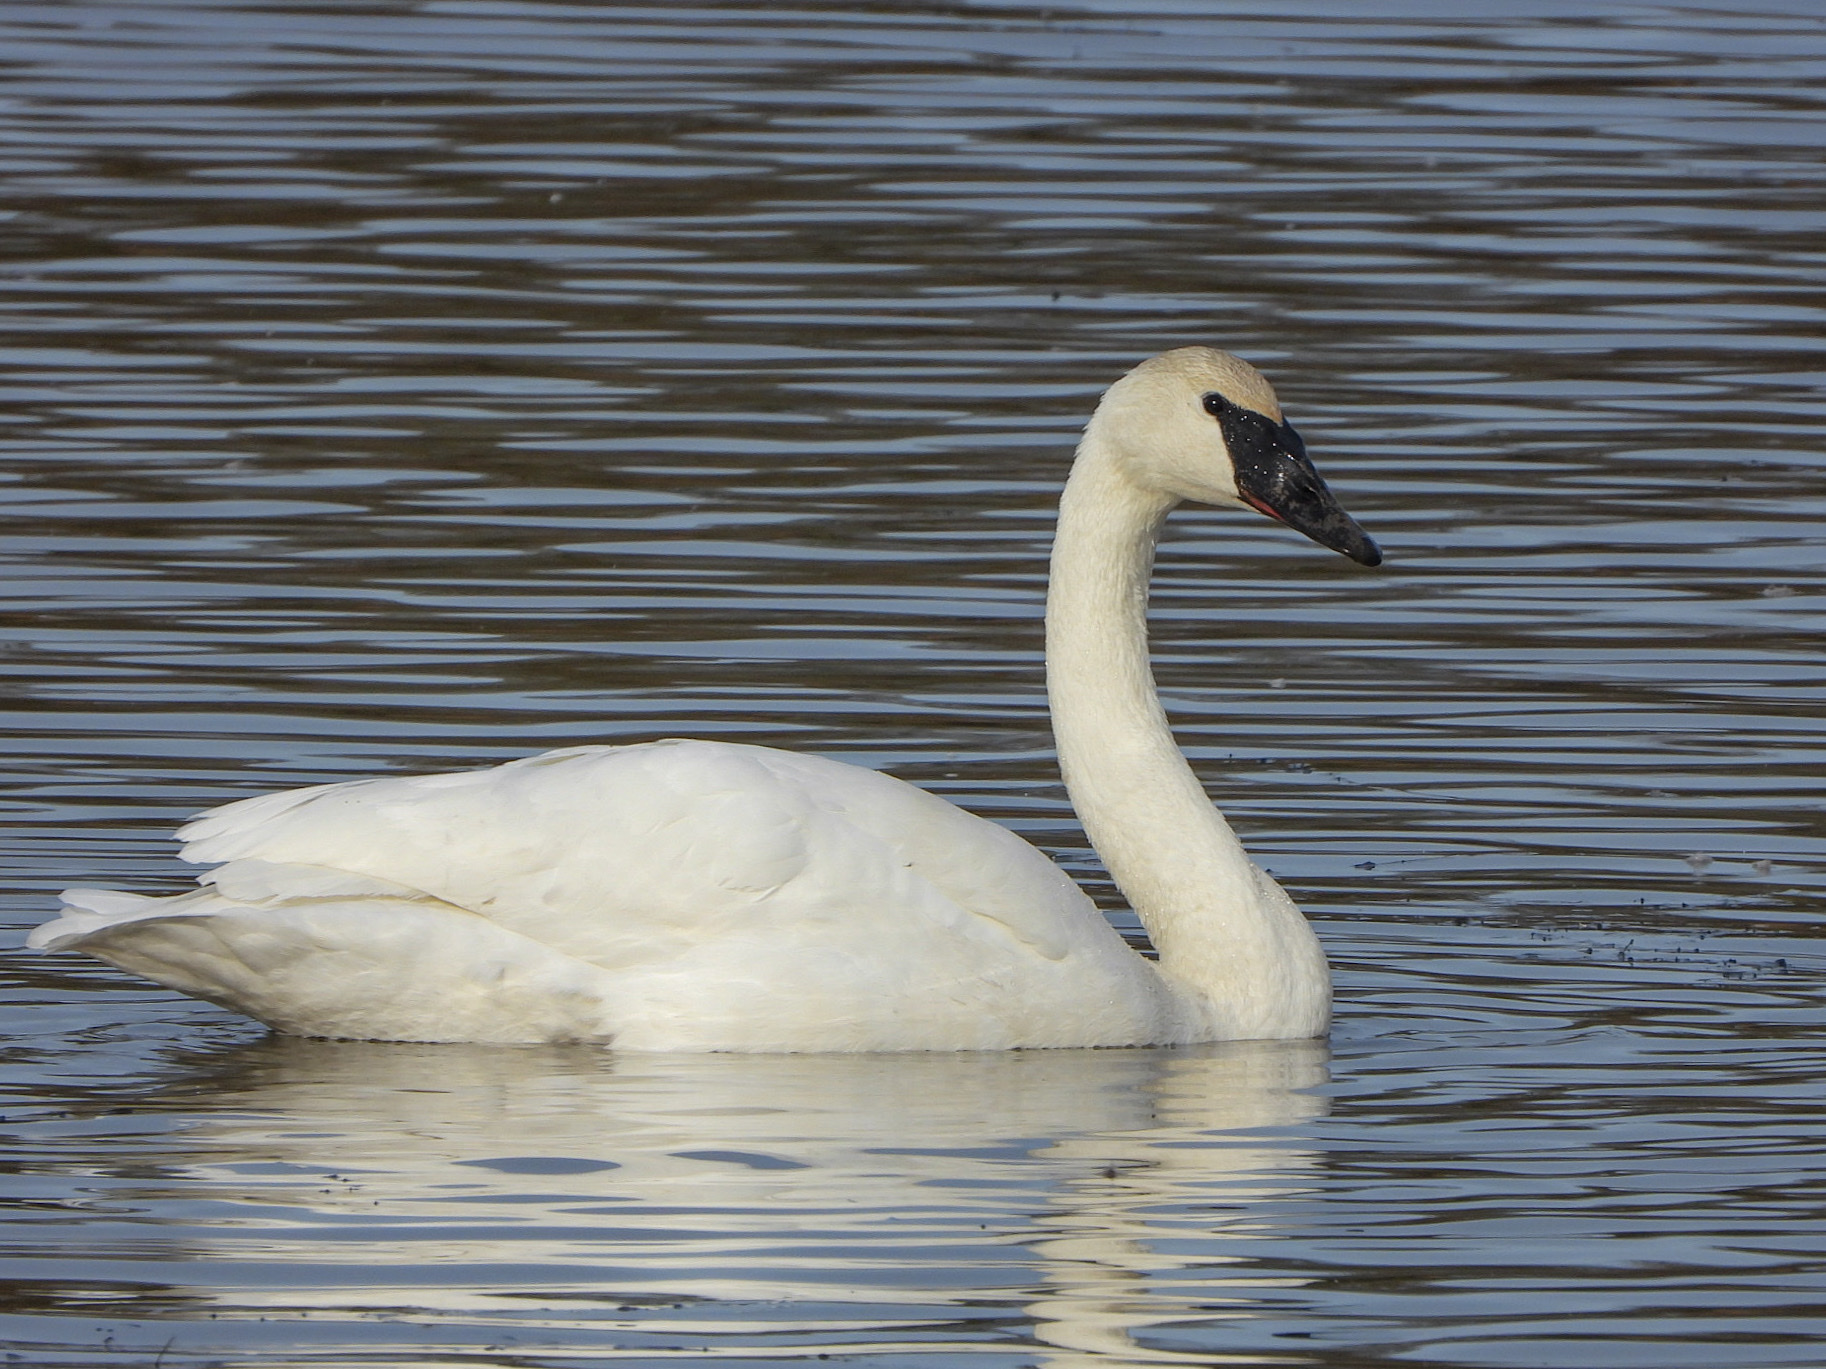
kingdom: Animalia
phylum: Chordata
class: Aves
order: Anseriformes
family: Anatidae
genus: Cygnus
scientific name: Cygnus buccinator
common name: Trumpeter swan
